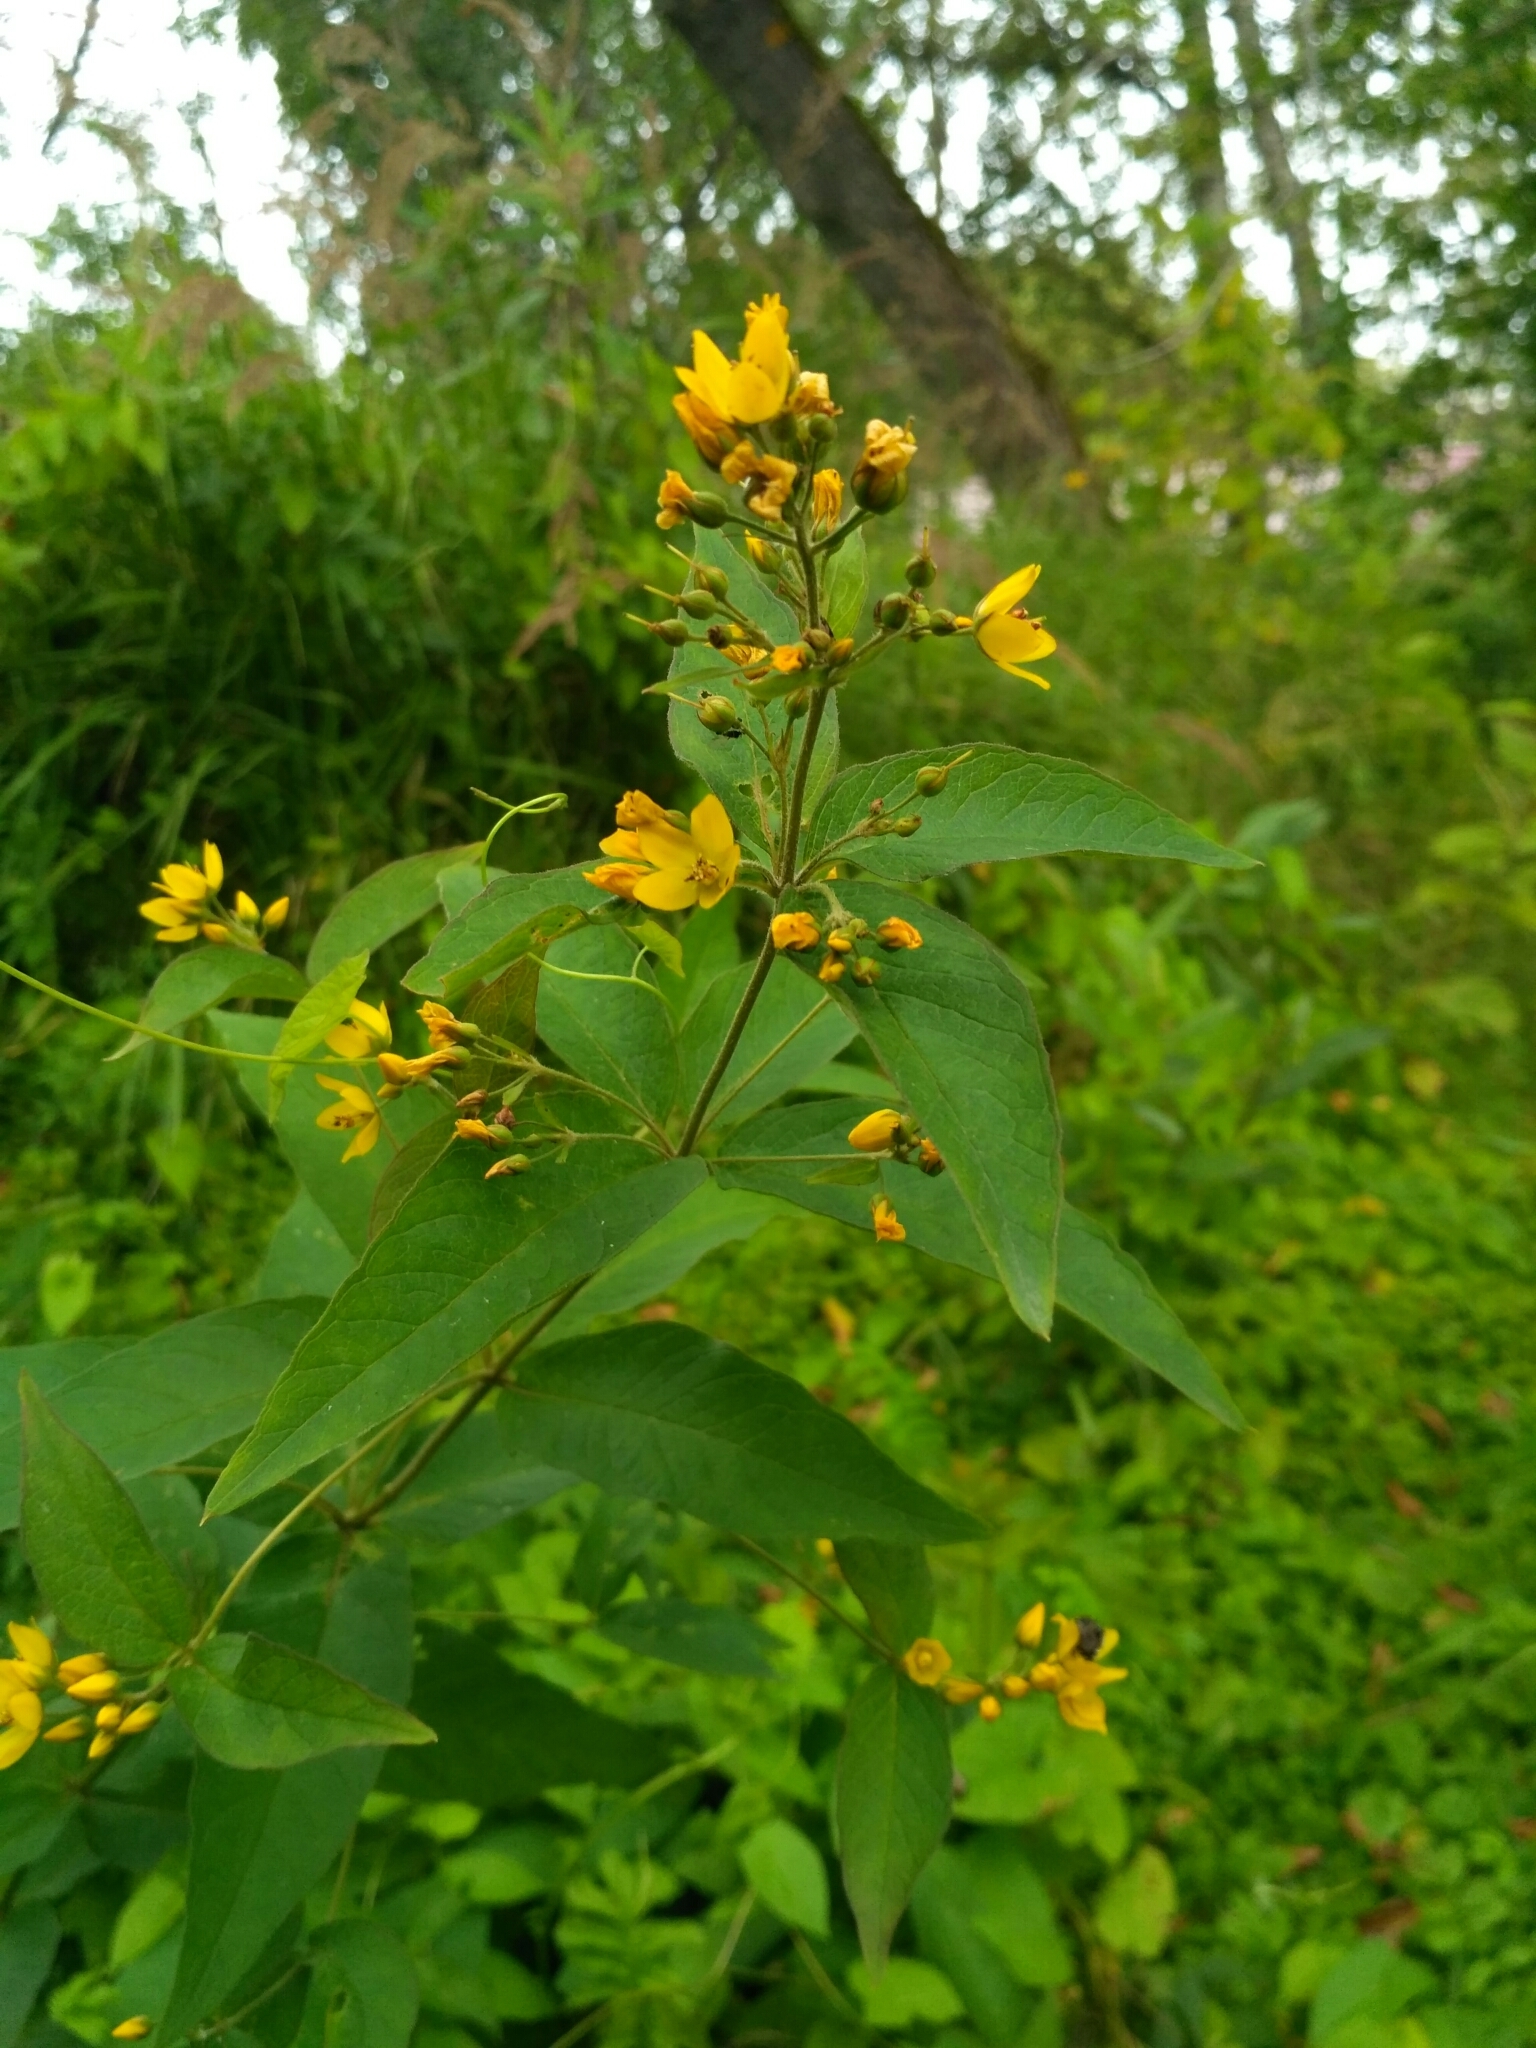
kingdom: Plantae
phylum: Tracheophyta
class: Magnoliopsida
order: Ericales
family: Primulaceae
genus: Lysimachia
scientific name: Lysimachia vulgaris
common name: Yellow loosestrife
